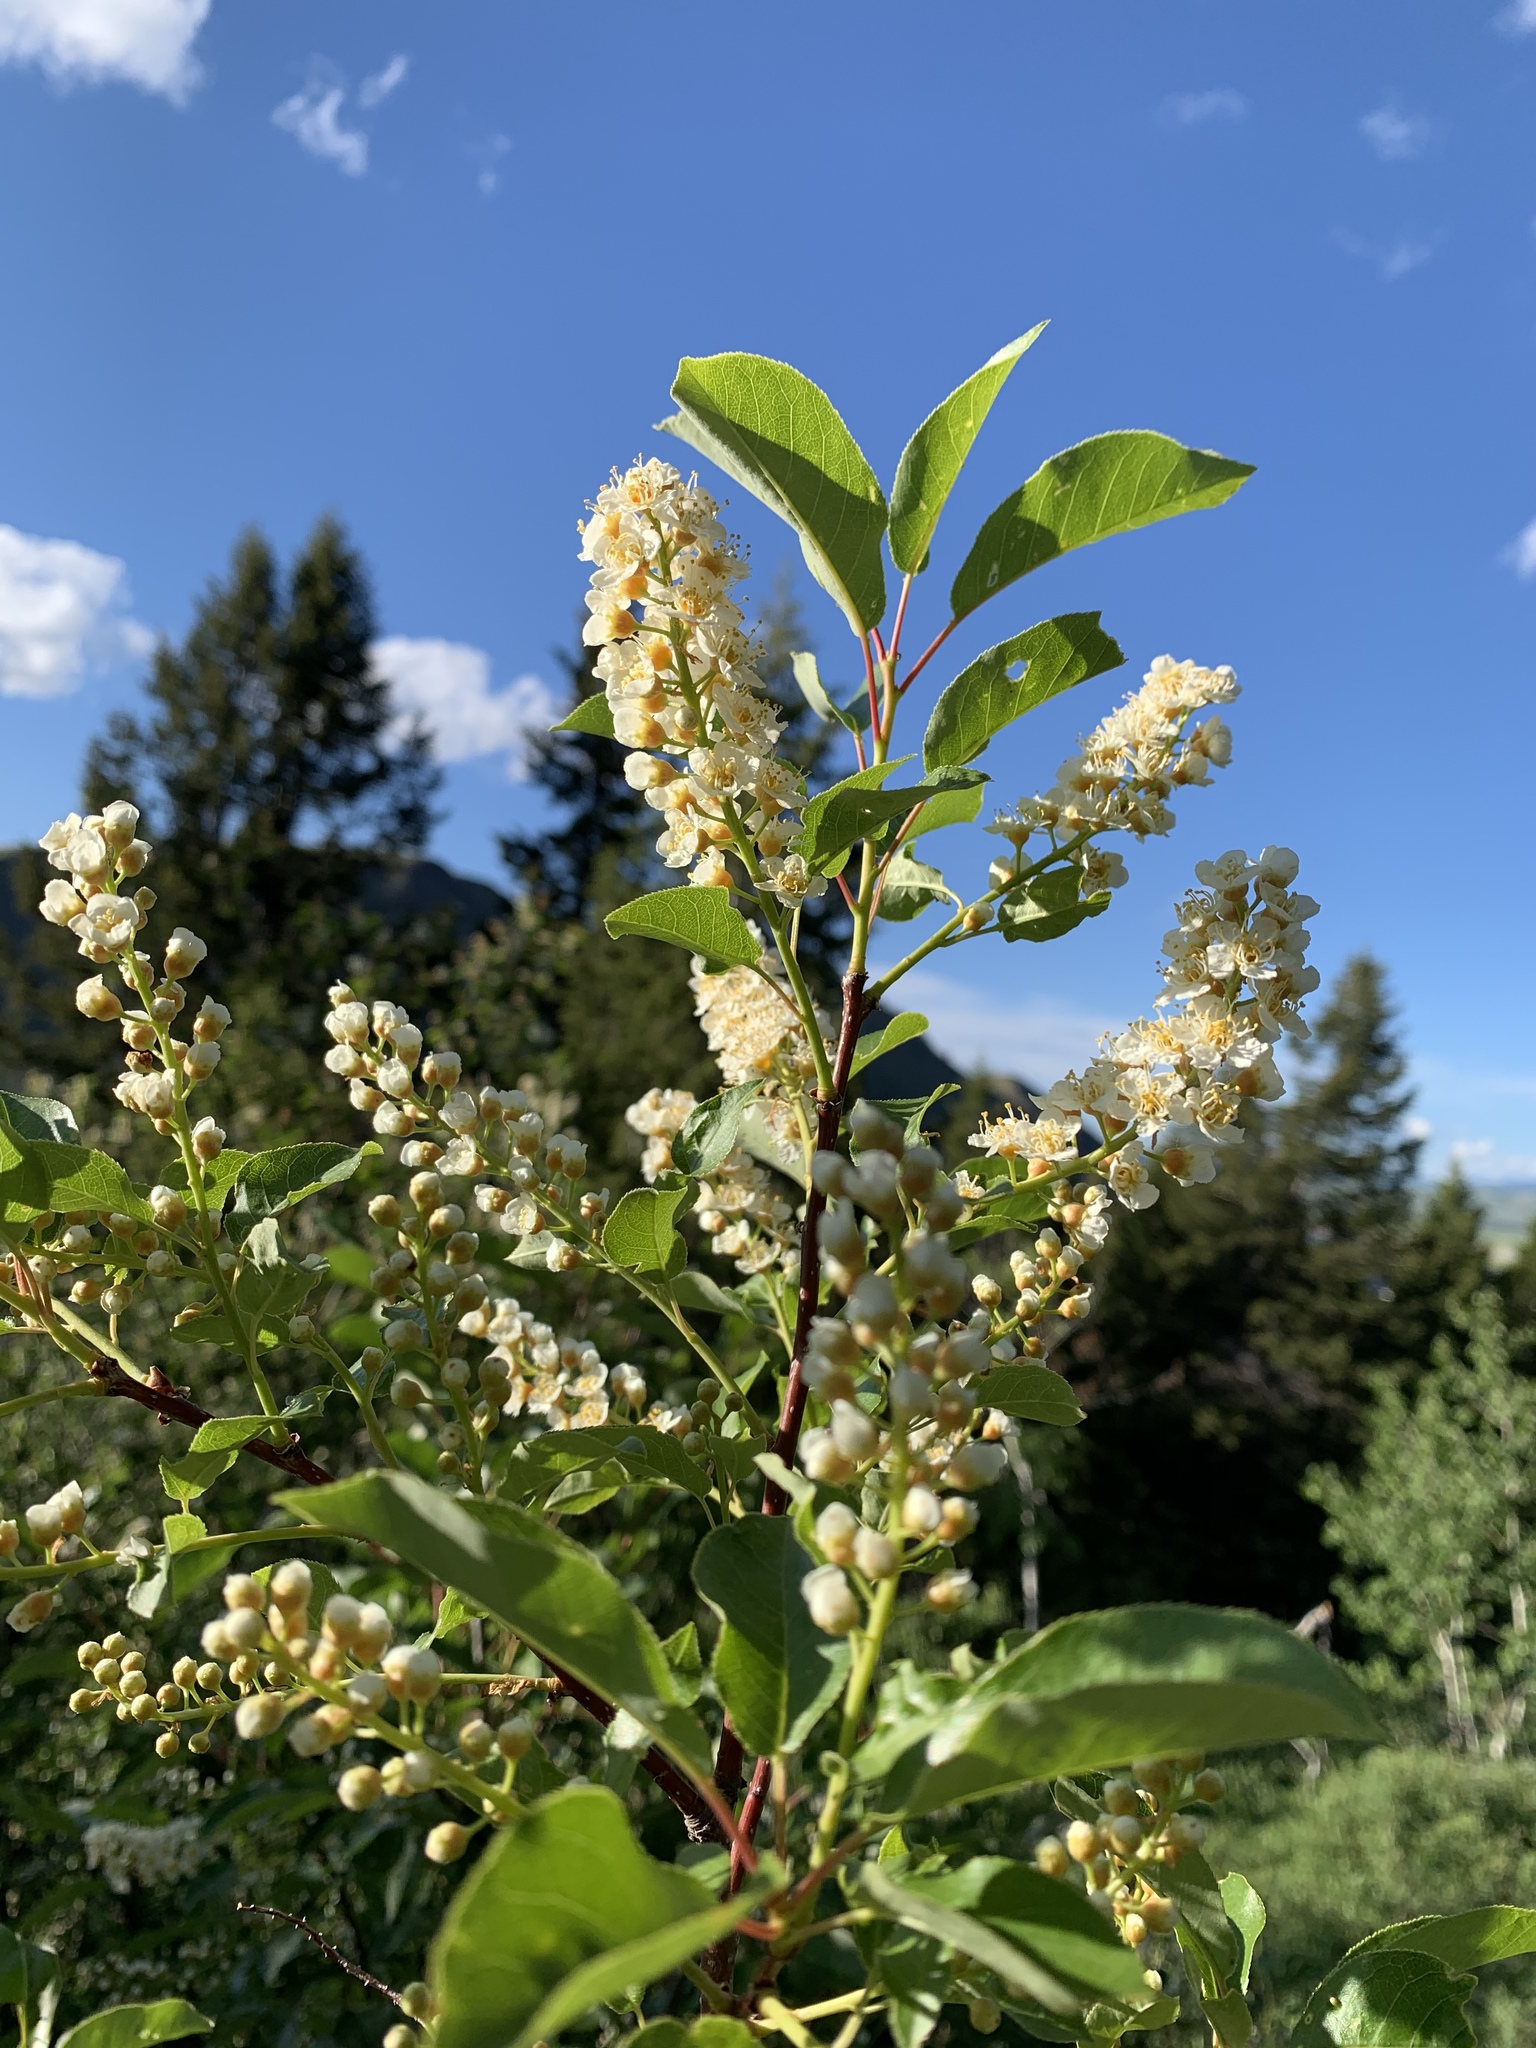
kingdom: Plantae
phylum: Tracheophyta
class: Magnoliopsida
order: Rosales
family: Rosaceae
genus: Prunus
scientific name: Prunus virginiana
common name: Chokecherry
